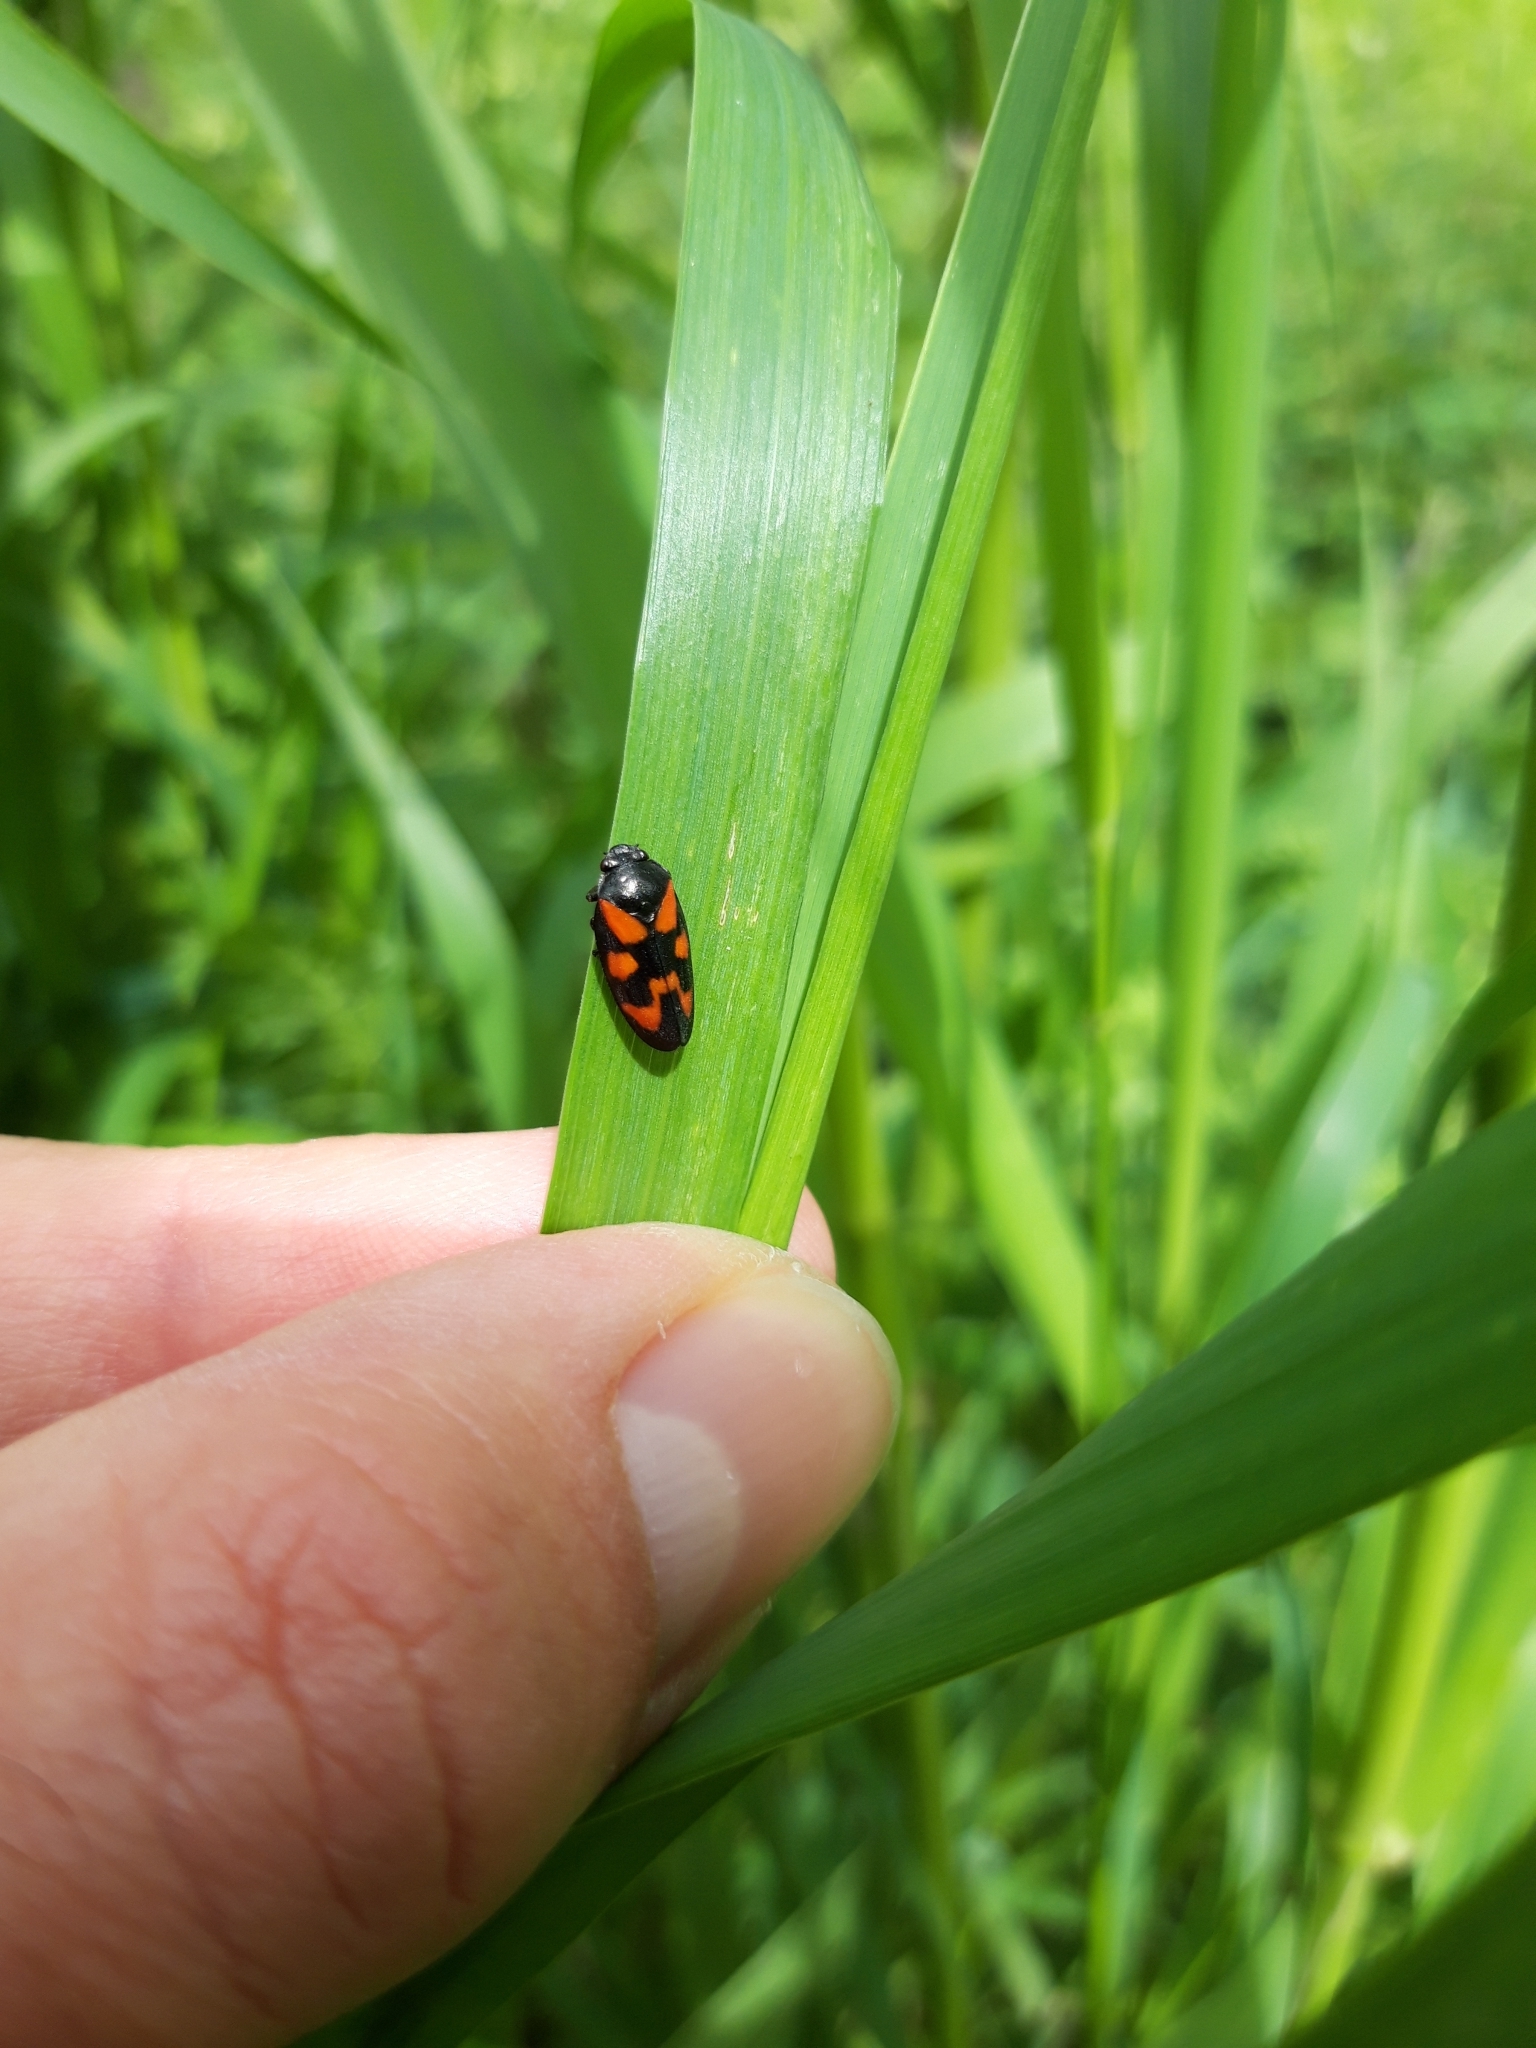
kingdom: Animalia
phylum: Arthropoda
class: Insecta
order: Hemiptera
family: Cercopidae
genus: Cercopis
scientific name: Cercopis vulnerata
